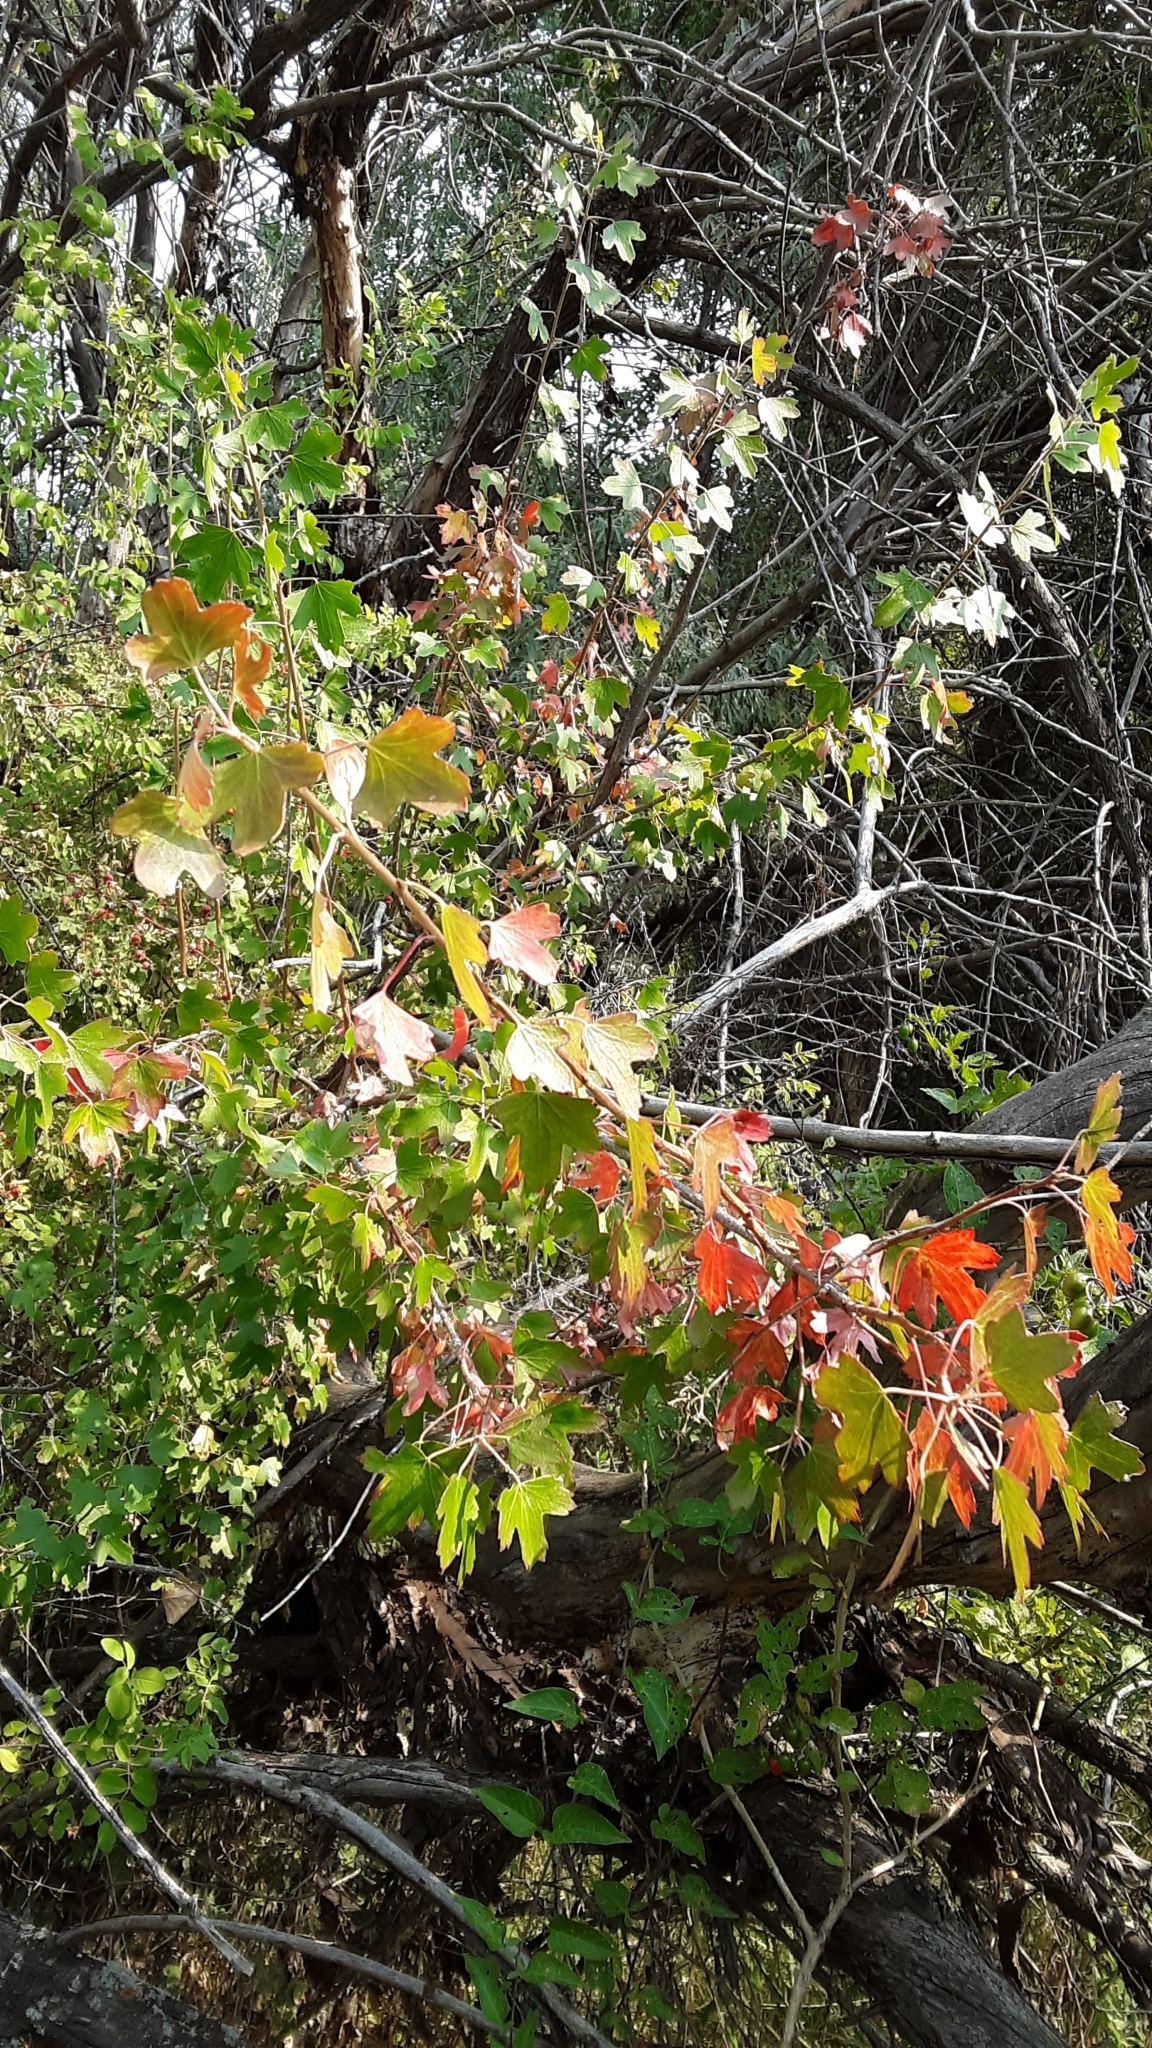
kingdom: Plantae
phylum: Tracheophyta
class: Magnoliopsida
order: Saxifragales
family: Grossulariaceae
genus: Ribes
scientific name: Ribes aureum
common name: Golden currant
